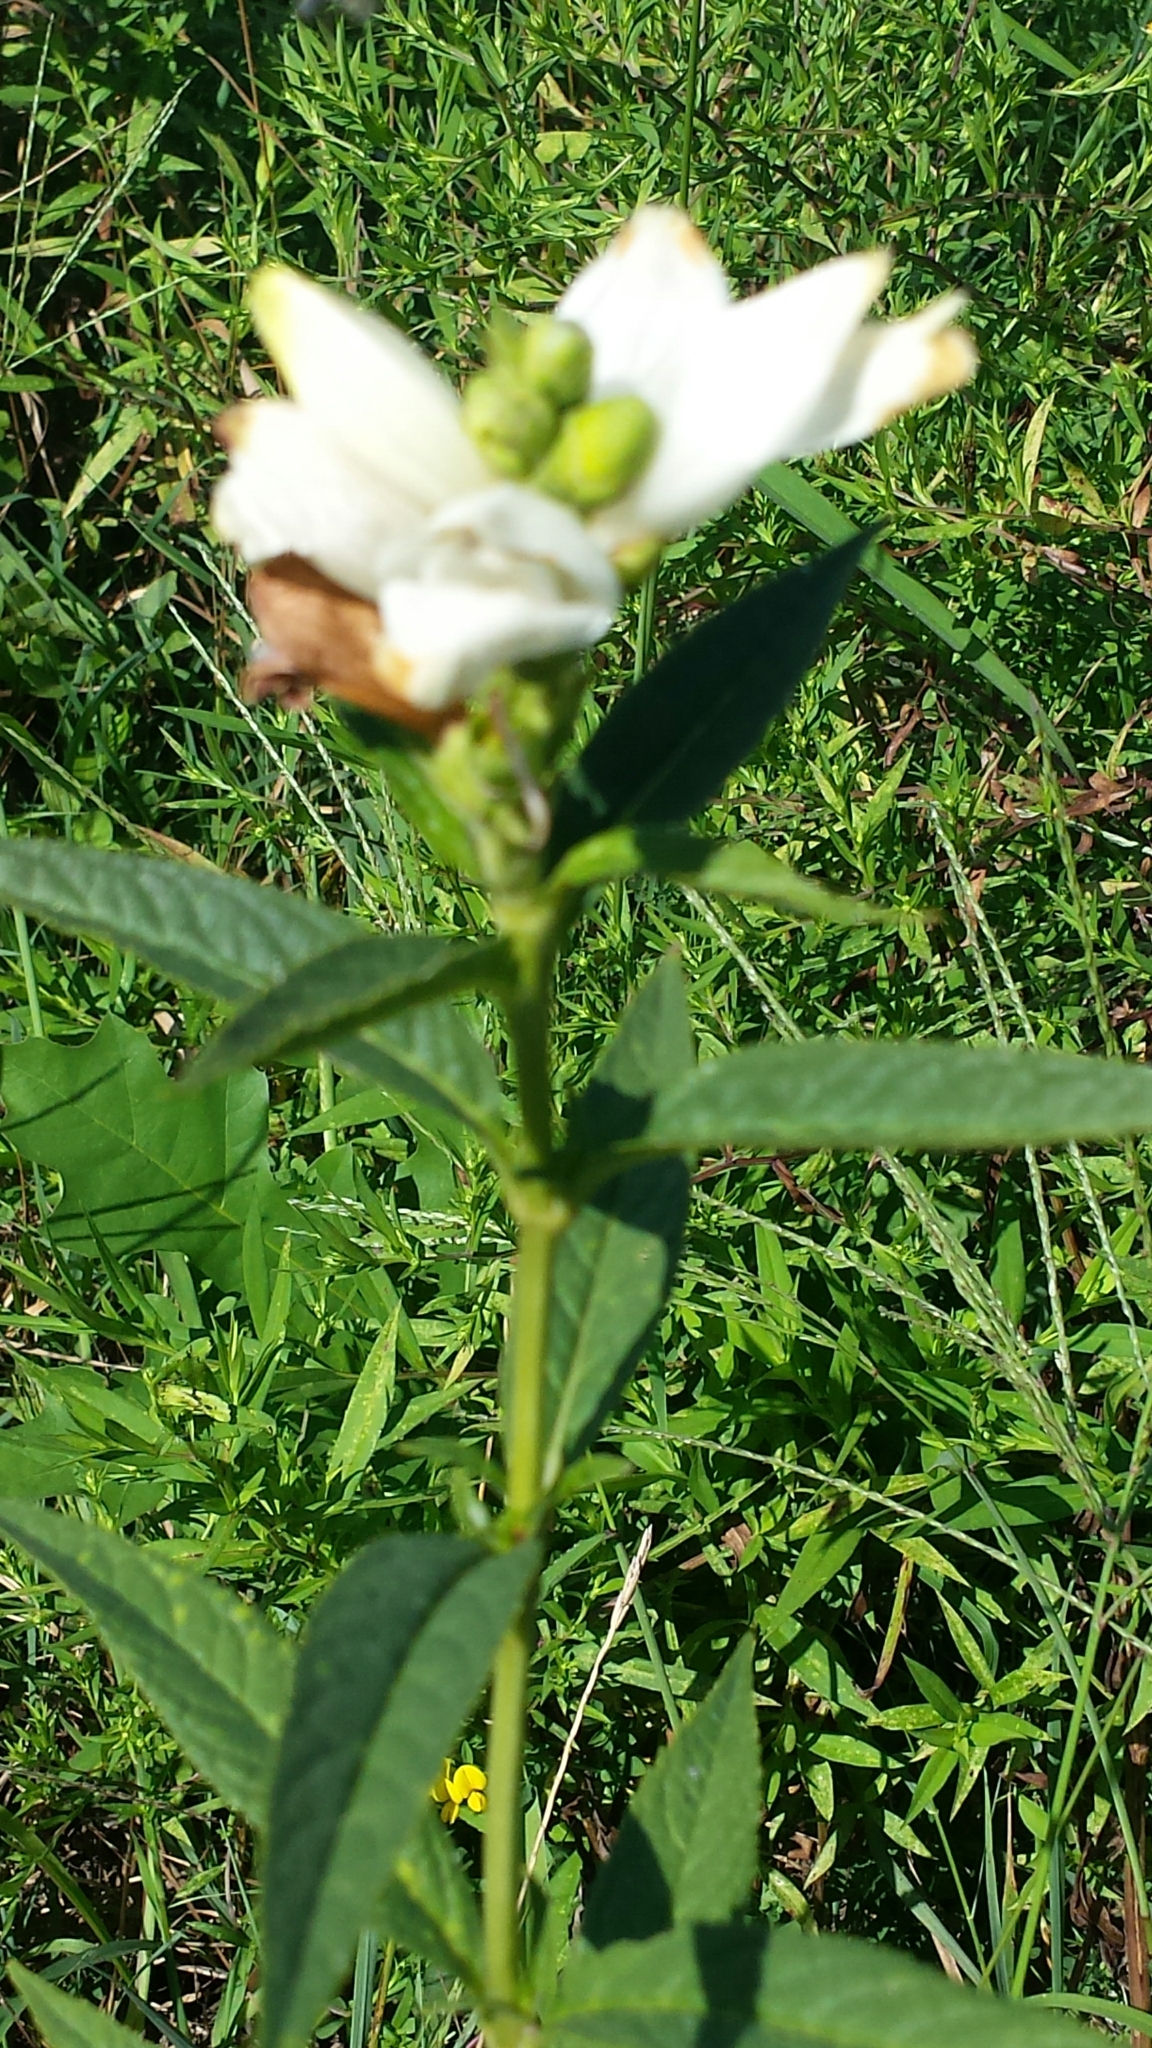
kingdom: Plantae
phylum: Tracheophyta
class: Magnoliopsida
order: Lamiales
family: Plantaginaceae
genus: Chelone
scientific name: Chelone glabra
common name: Snakehead
